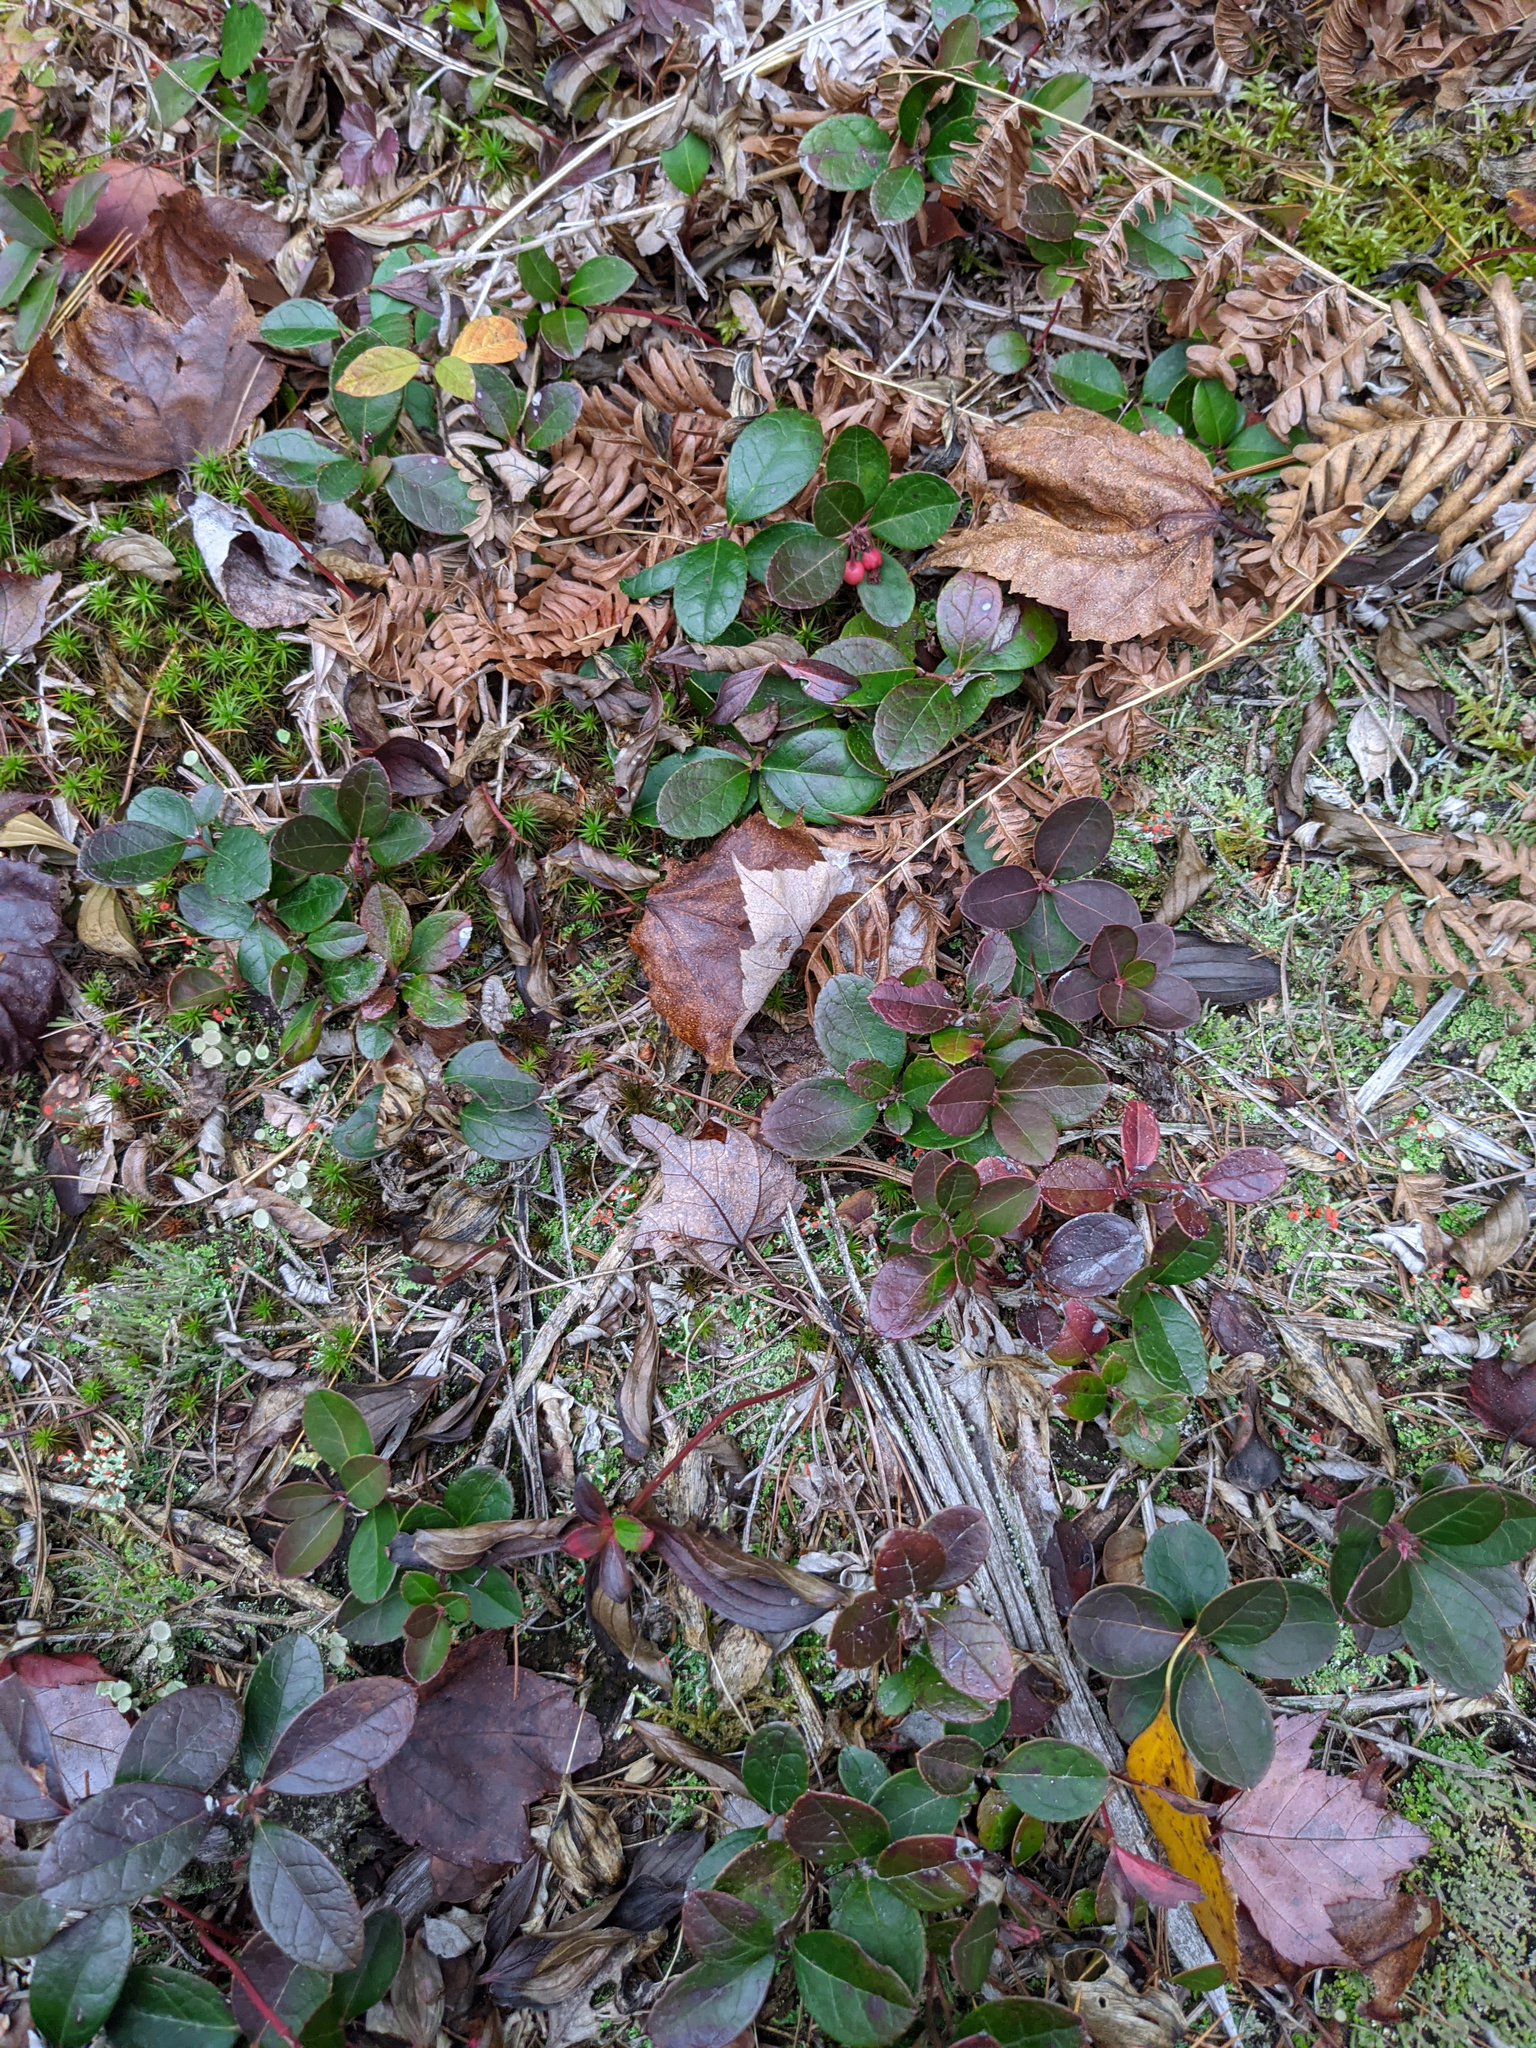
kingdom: Plantae
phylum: Tracheophyta
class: Magnoliopsida
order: Ericales
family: Ericaceae
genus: Gaultheria
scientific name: Gaultheria procumbens
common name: Checkerberry
